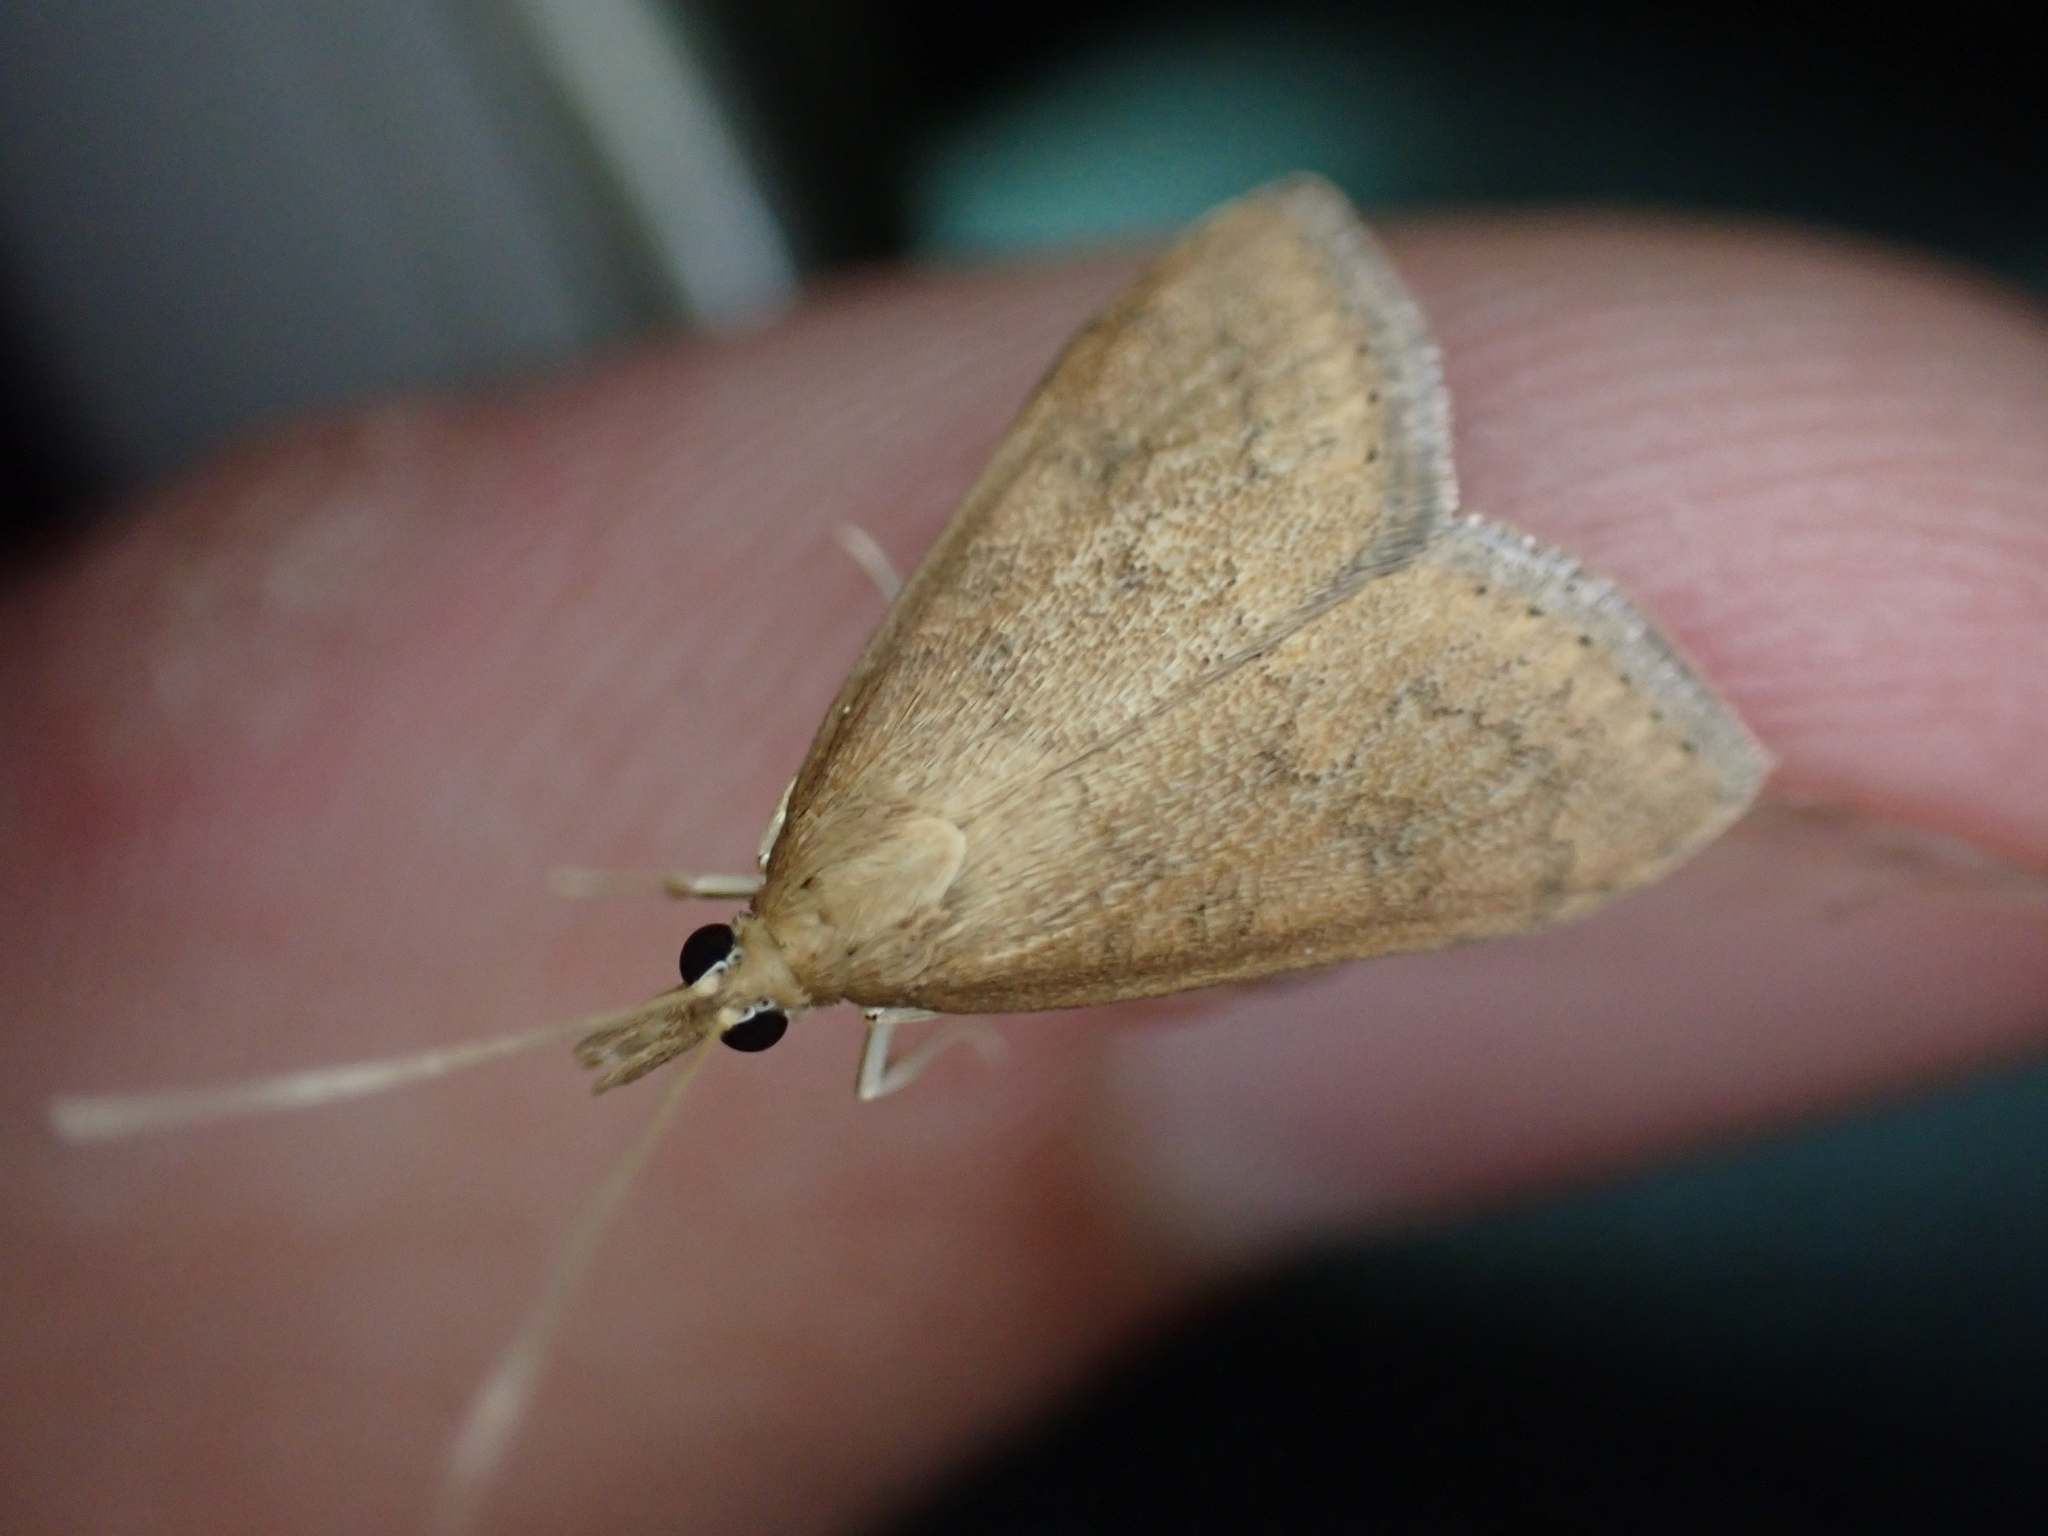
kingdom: Animalia
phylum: Arthropoda
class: Insecta
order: Lepidoptera
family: Crambidae
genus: Udea
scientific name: Udea rubigalis
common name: Celery leaftier moth
